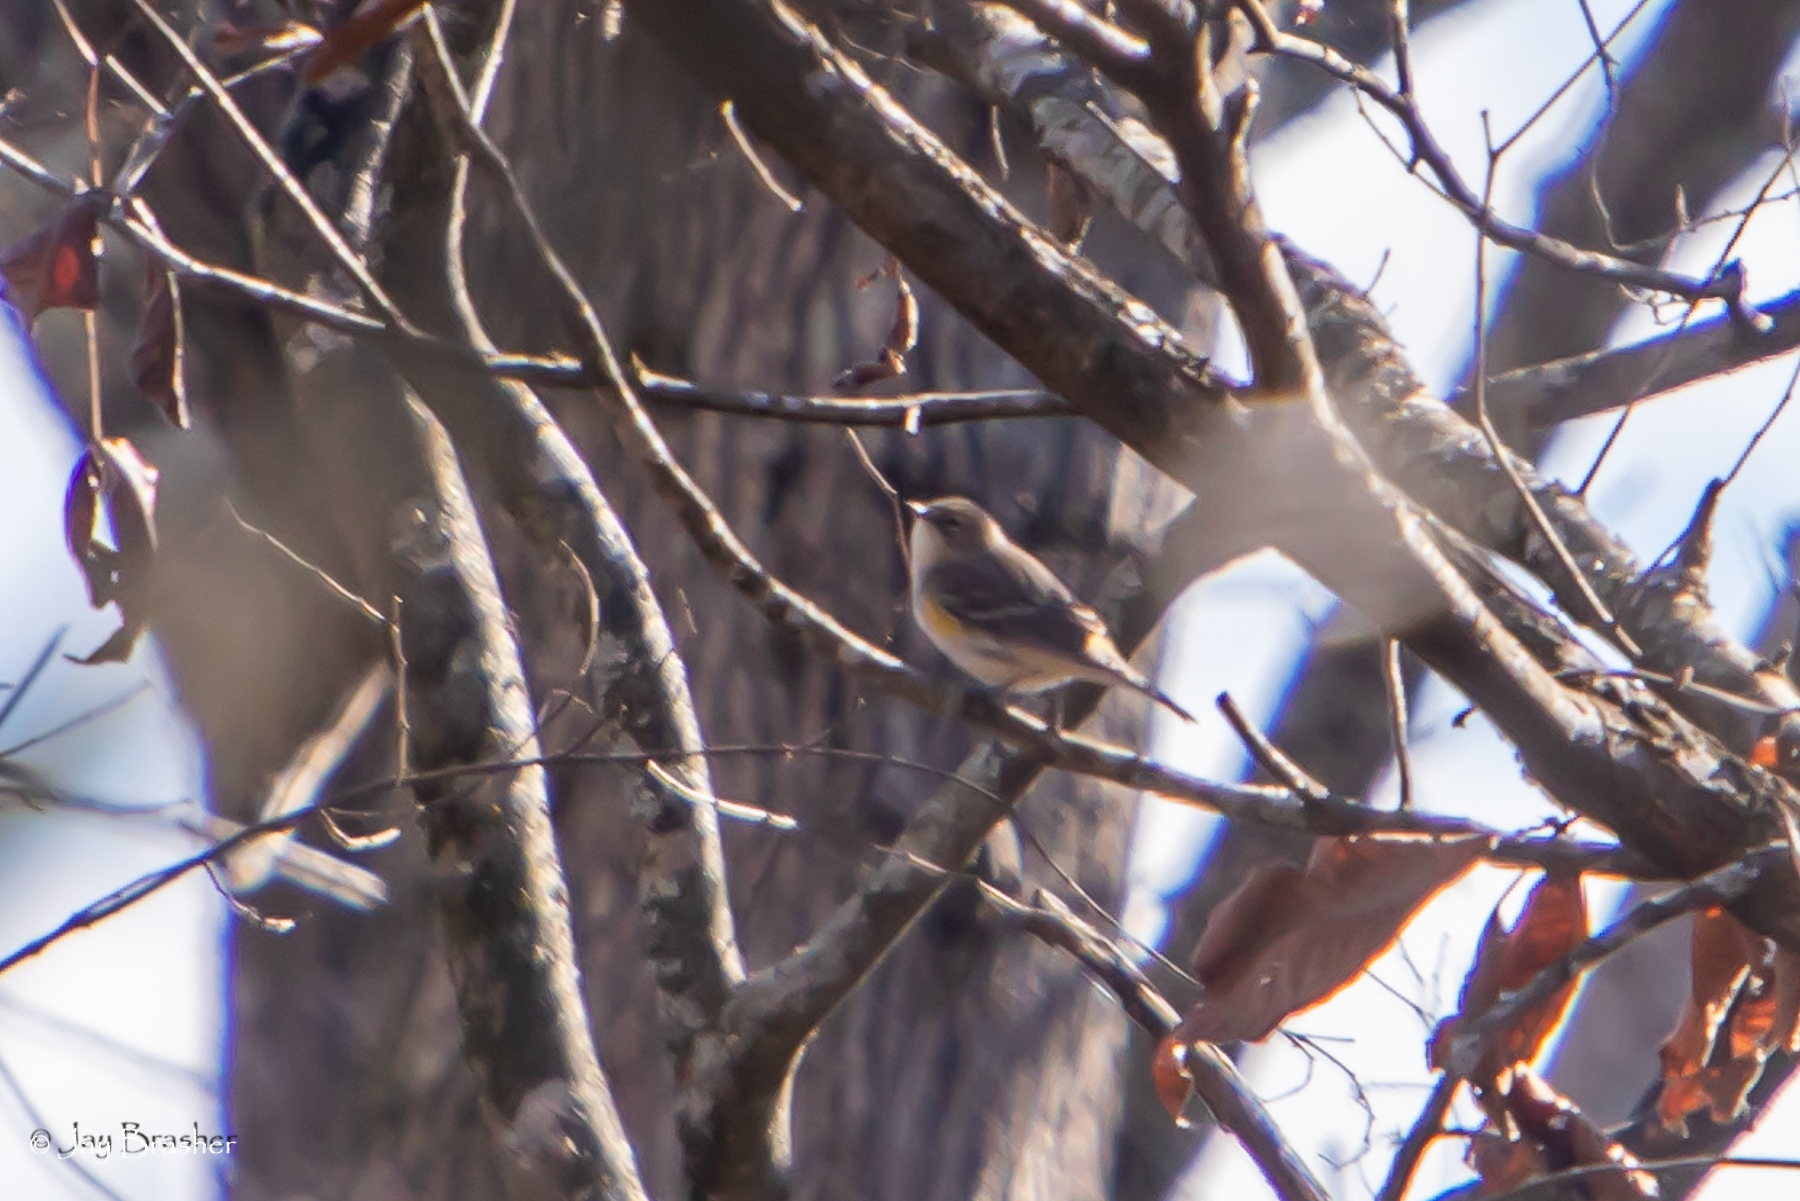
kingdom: Animalia
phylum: Chordata
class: Aves
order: Passeriformes
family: Parulidae
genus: Setophaga
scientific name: Setophaga coronata
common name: Myrtle warbler
